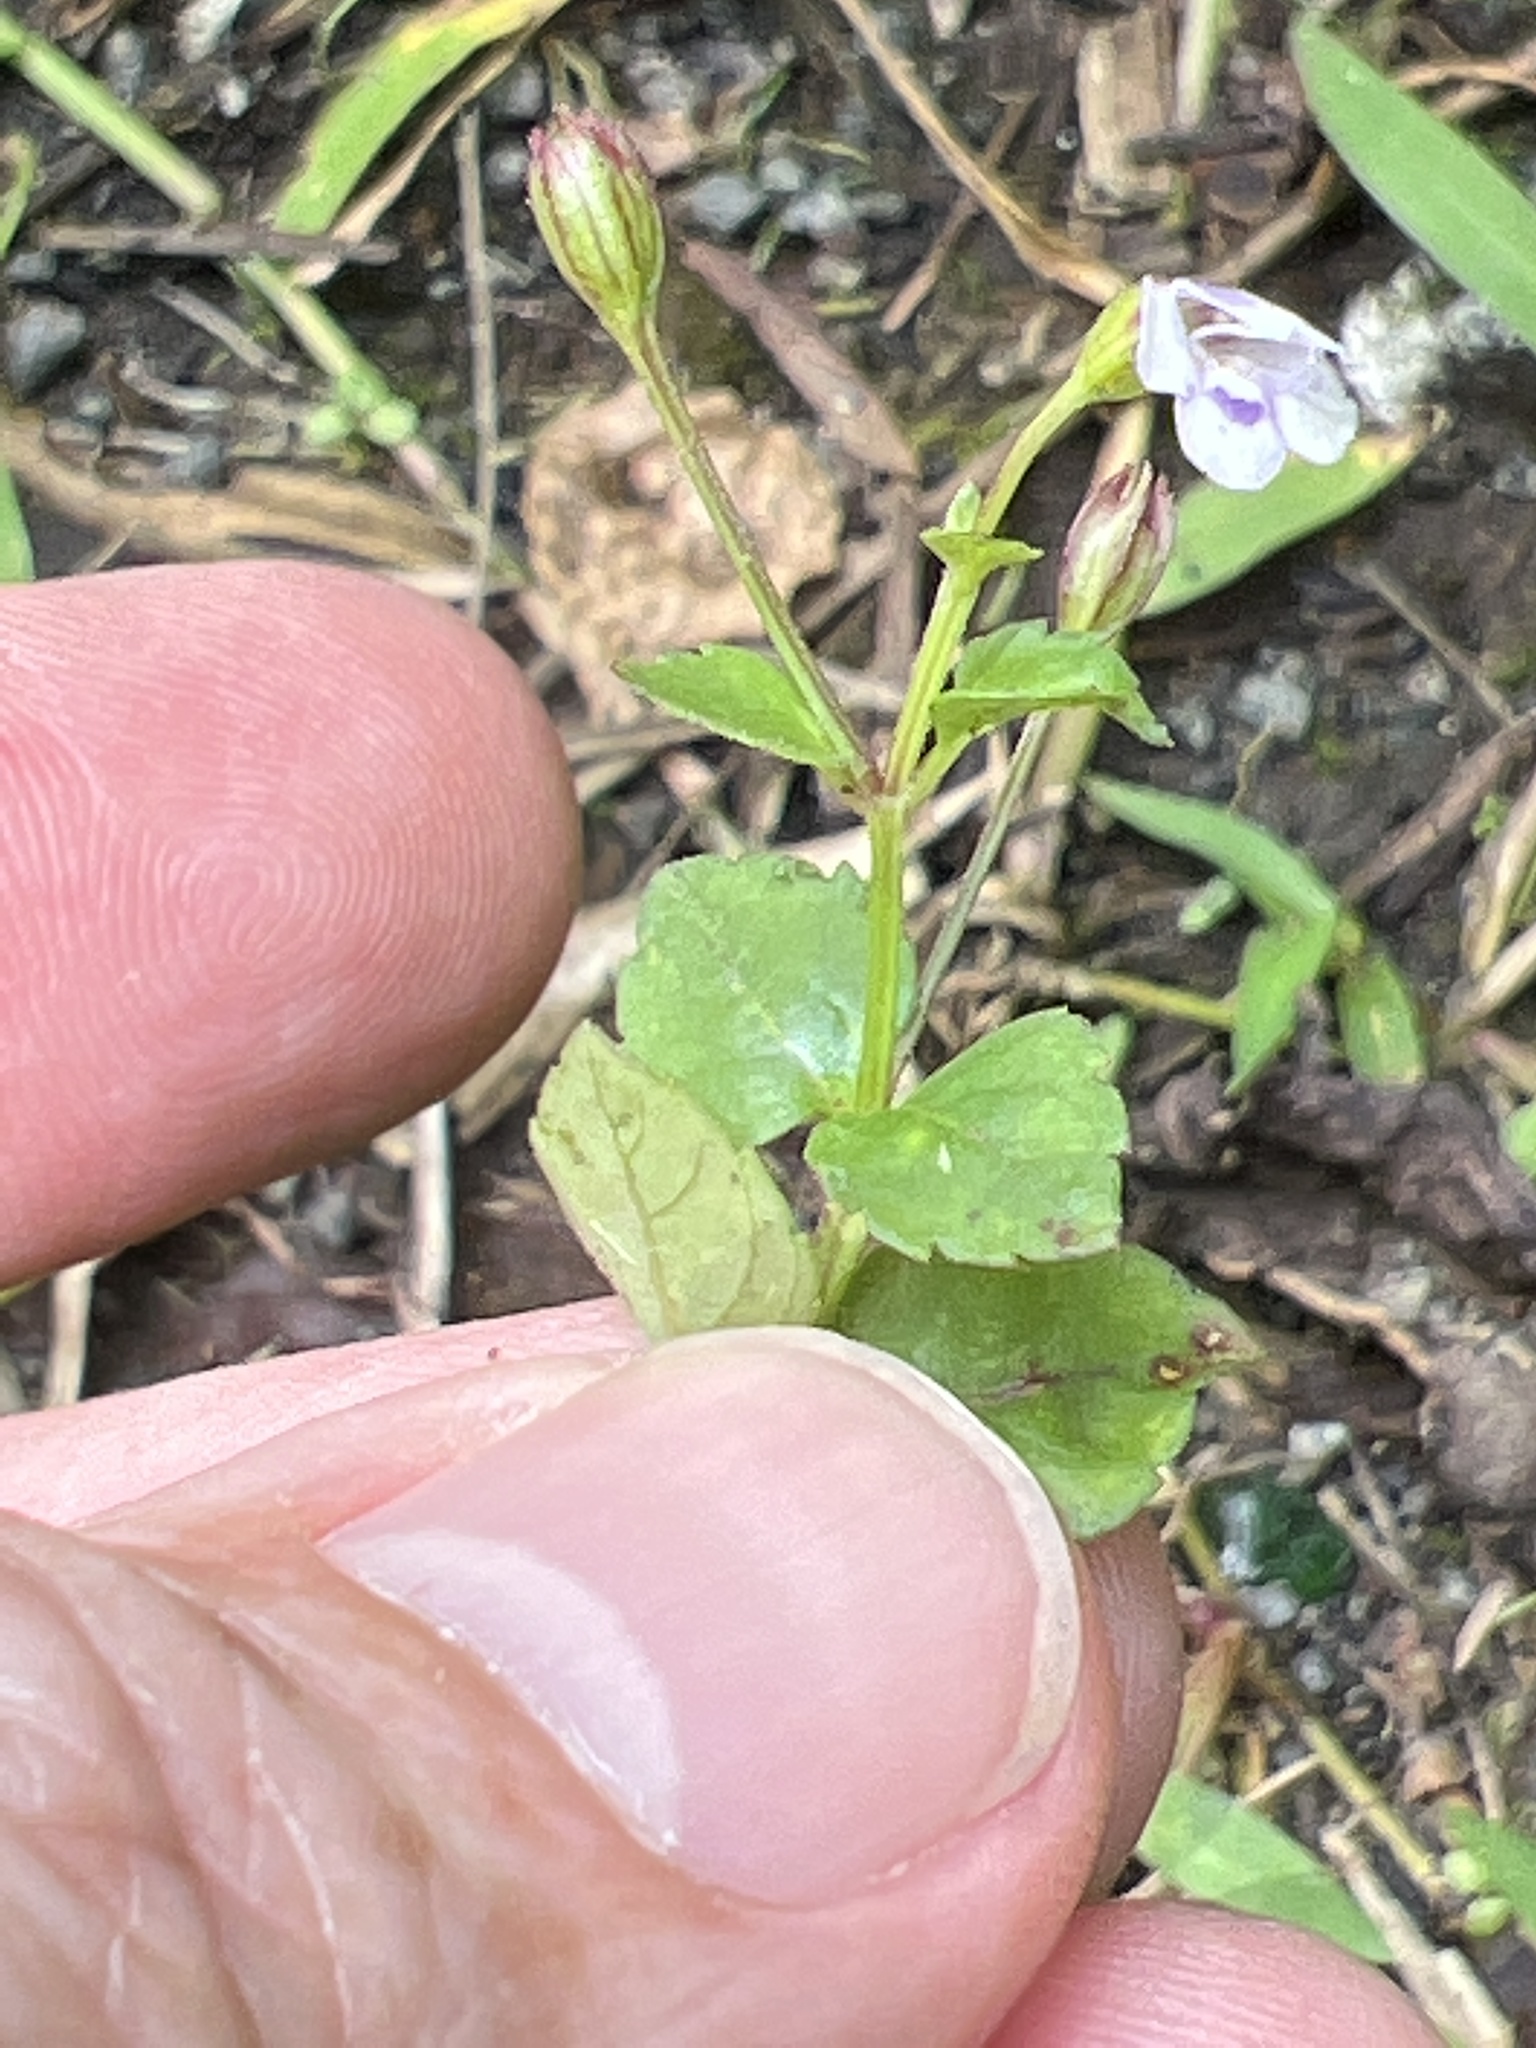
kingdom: Plantae
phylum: Tracheophyta
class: Magnoliopsida
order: Lamiales
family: Linderniaceae
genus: Torenia
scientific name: Torenia crustacea
